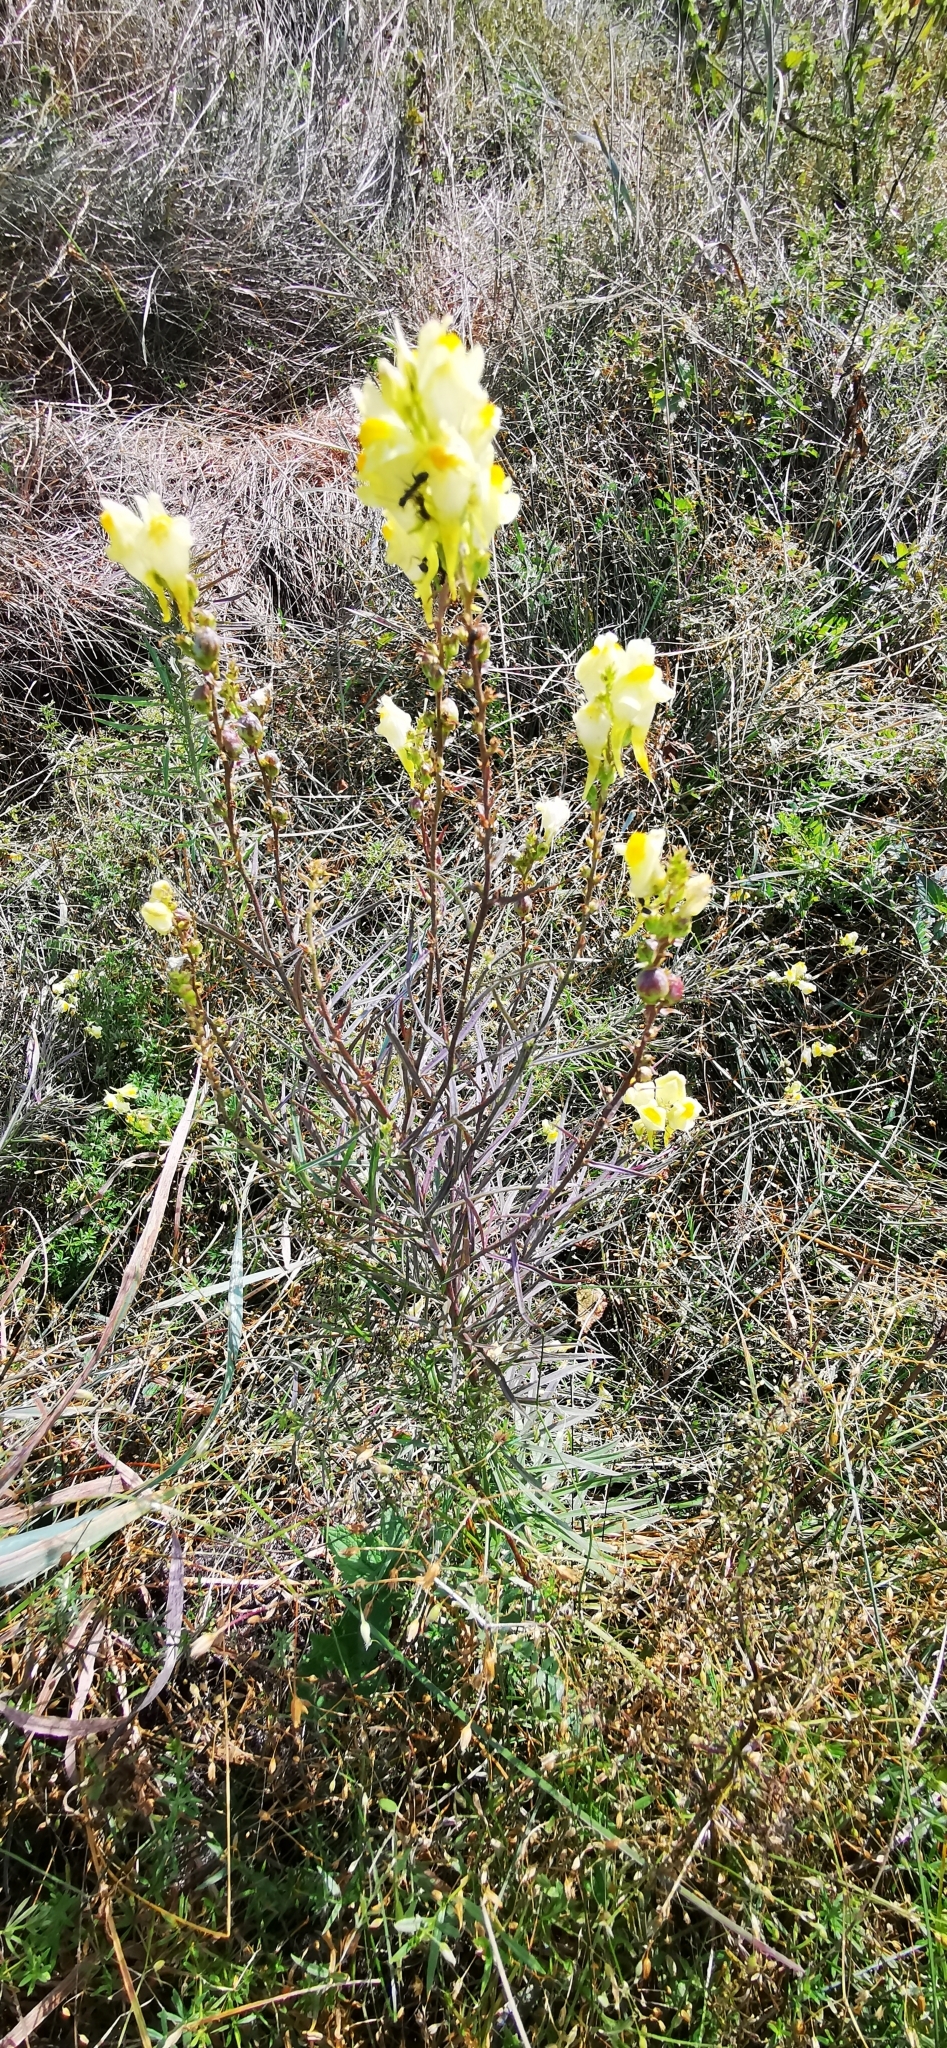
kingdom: Plantae
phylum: Tracheophyta
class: Magnoliopsida
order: Lamiales
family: Plantaginaceae
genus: Linaria
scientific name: Linaria vulgaris
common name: Butter and eggs
